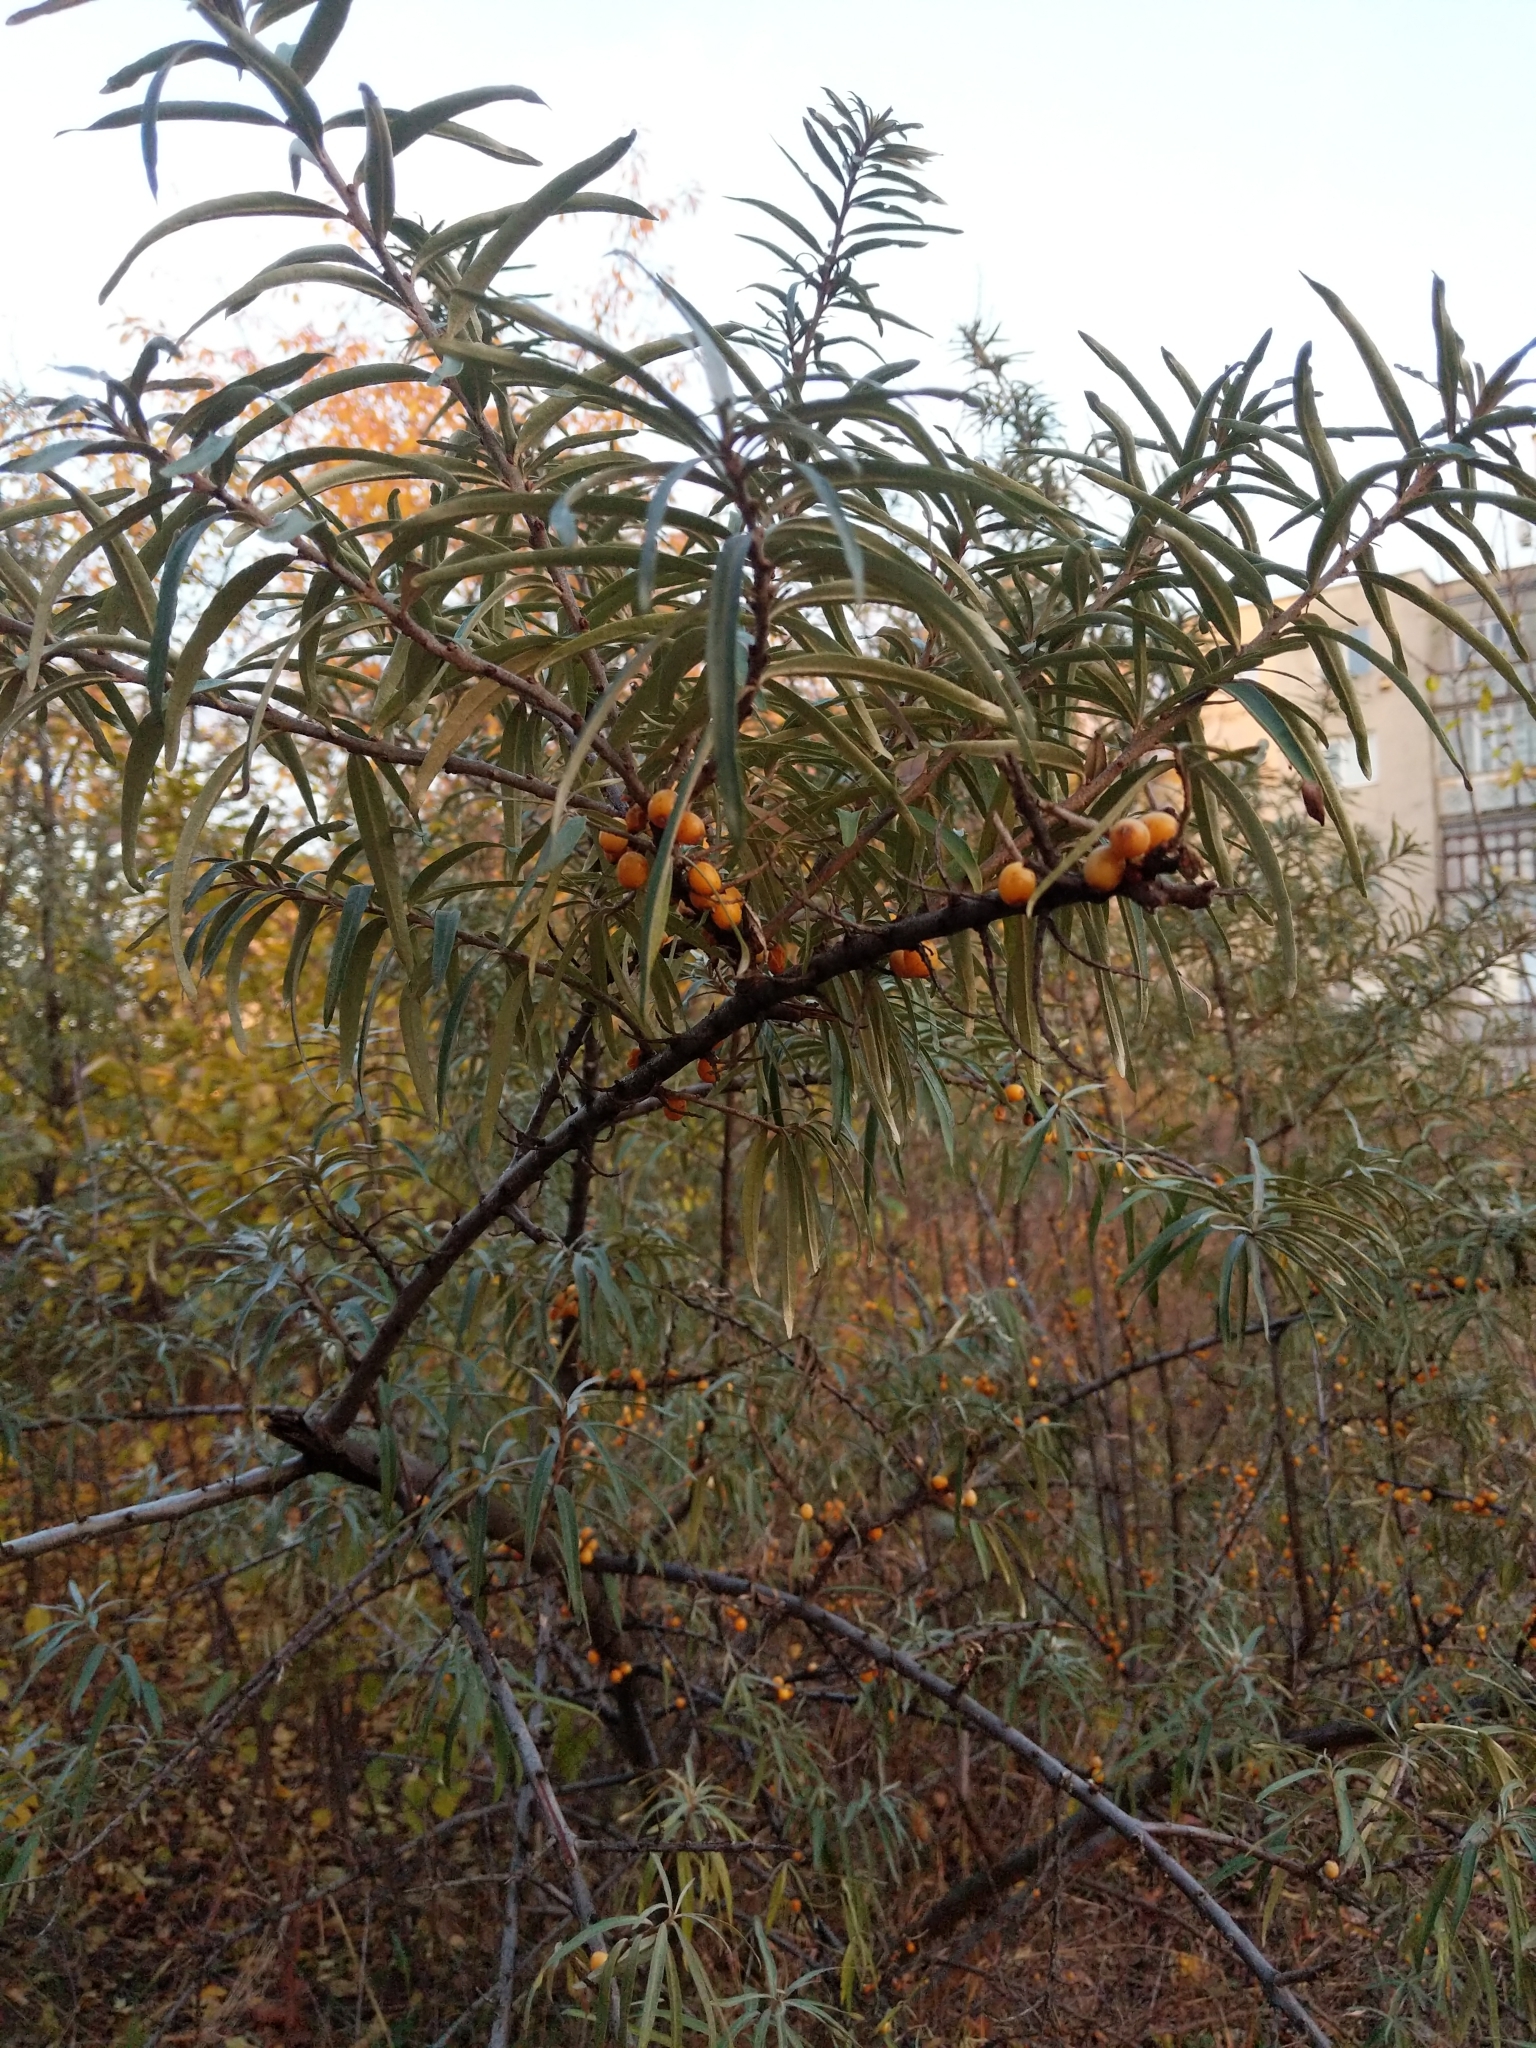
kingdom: Plantae
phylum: Tracheophyta
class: Magnoliopsida
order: Rosales
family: Elaeagnaceae
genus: Hippophae
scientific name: Hippophae rhamnoides
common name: Sea-buckthorn
